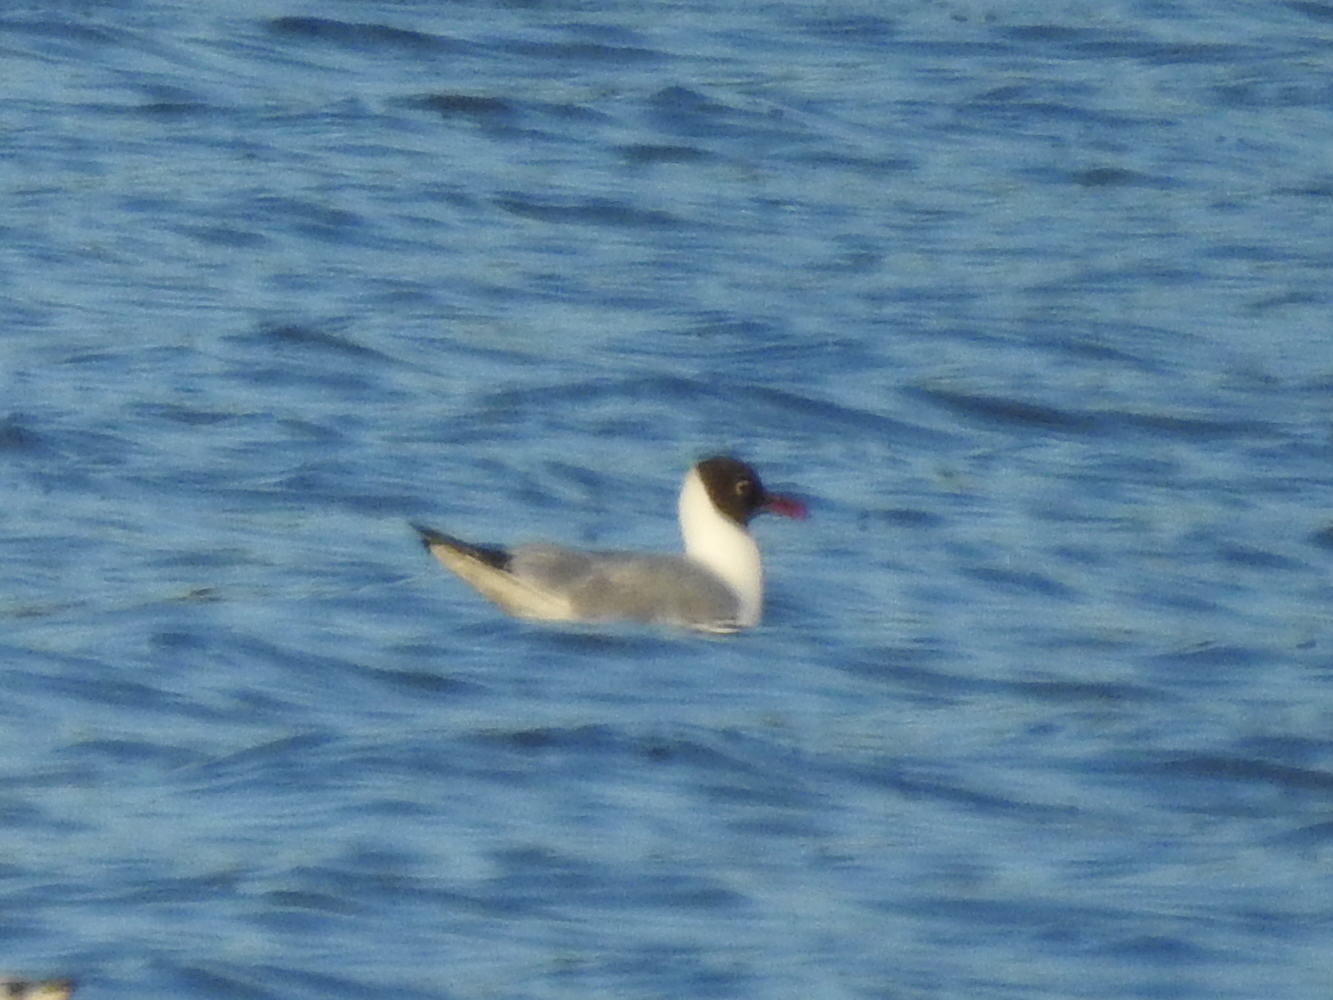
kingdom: Animalia
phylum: Chordata
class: Aves
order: Charadriiformes
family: Laridae
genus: Chroicocephalus
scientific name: Chroicocephalus ridibundus
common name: Black-headed gull
